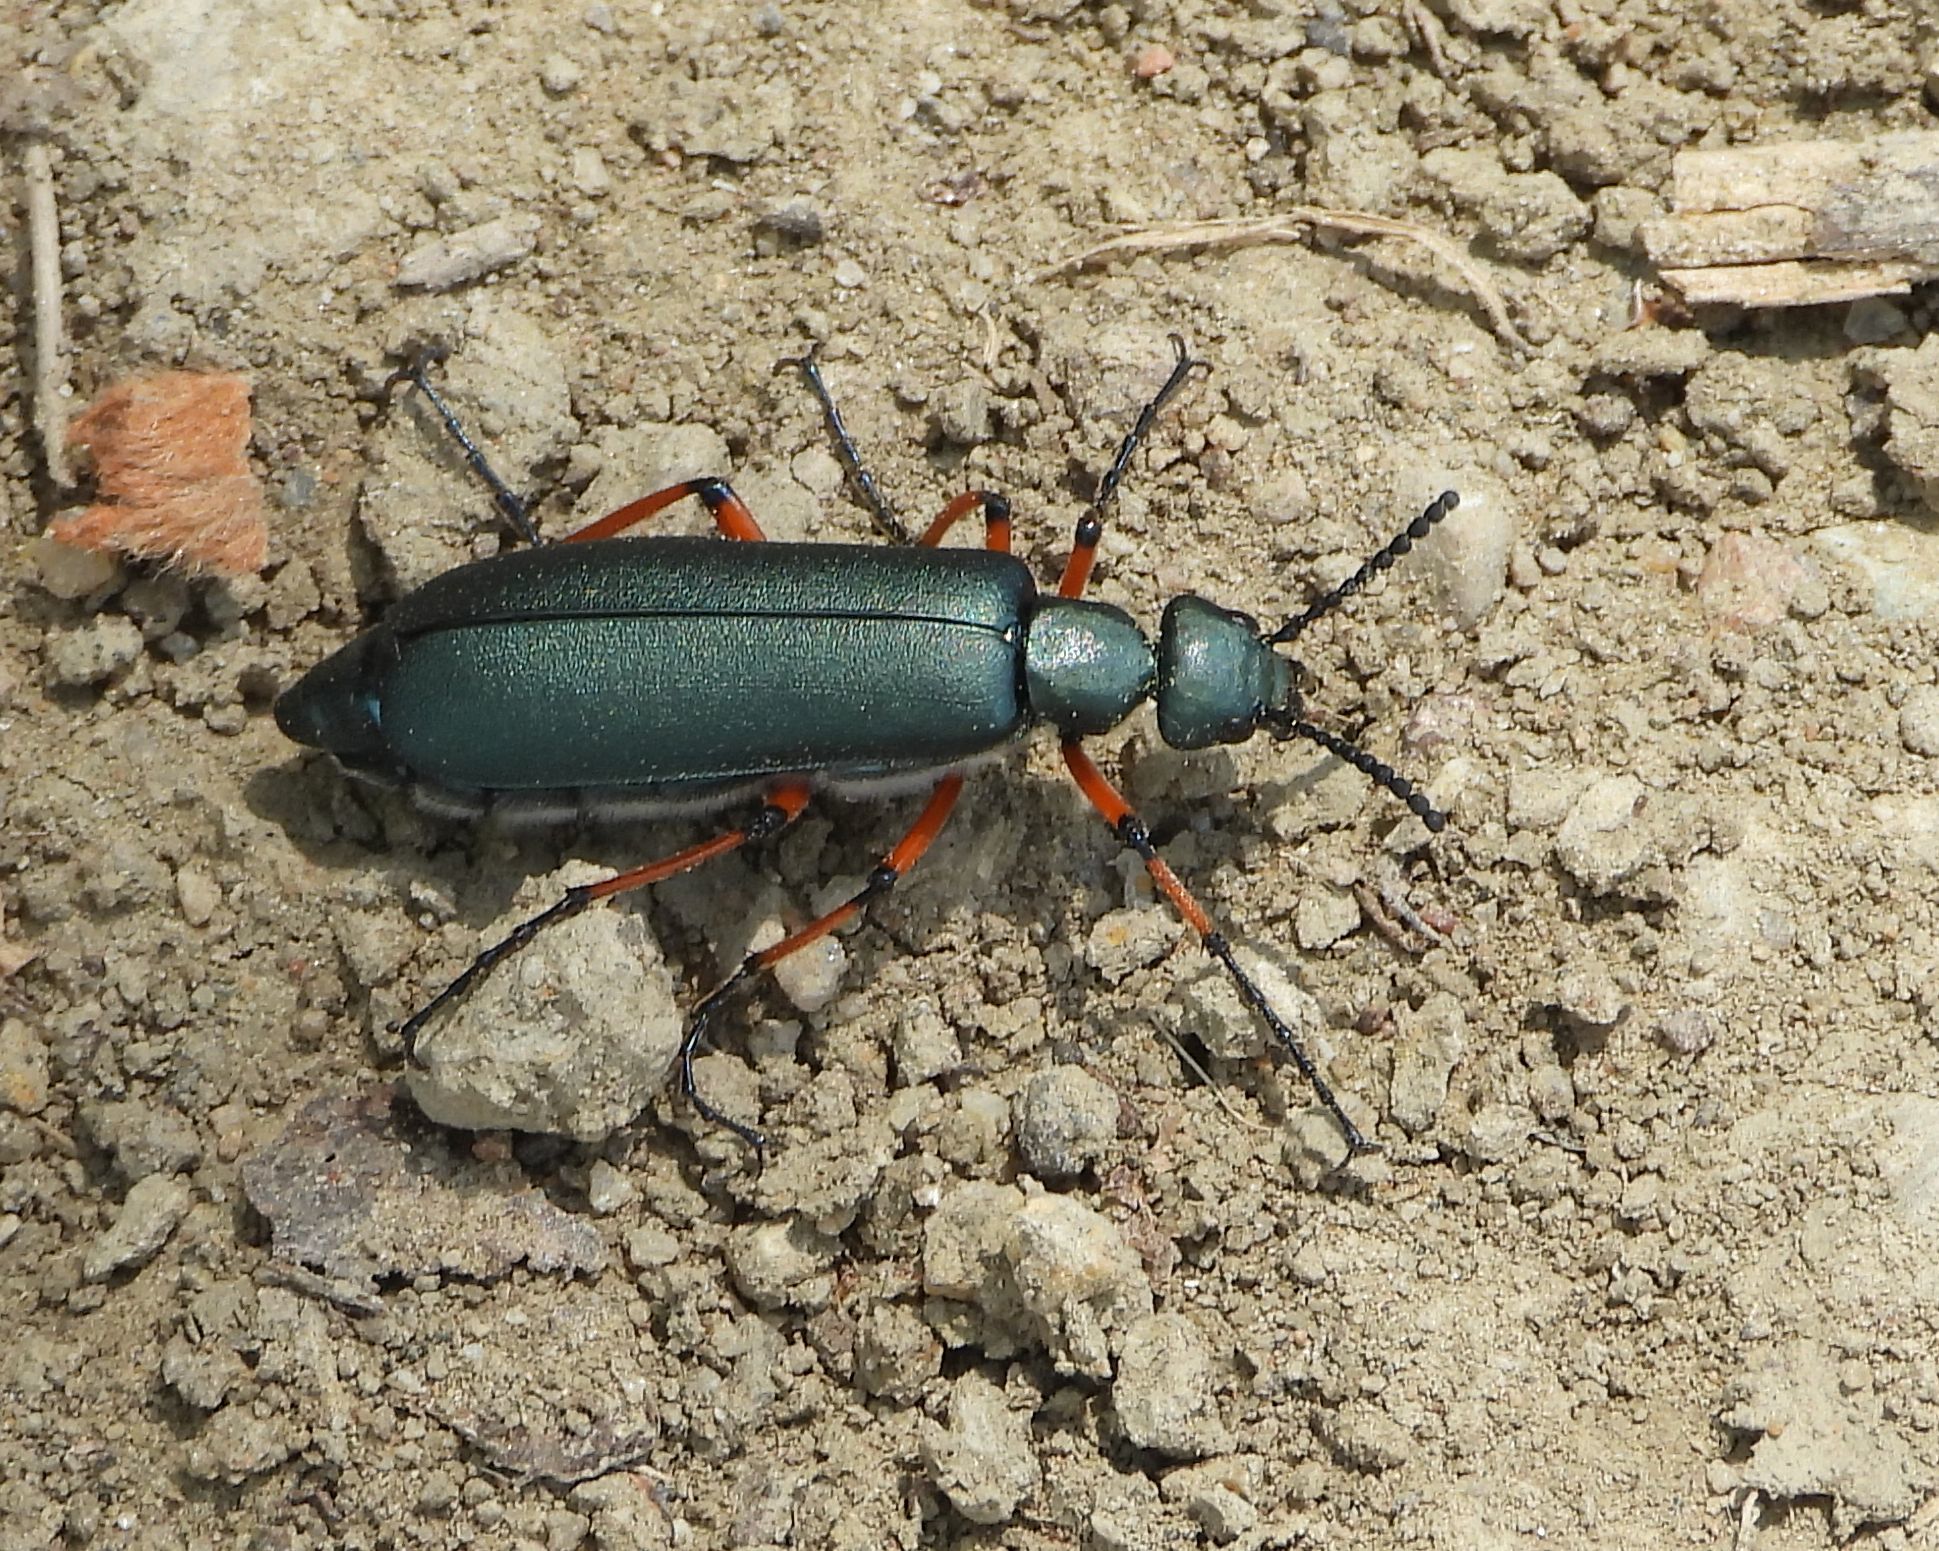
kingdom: Animalia
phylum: Arthropoda
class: Insecta
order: Coleoptera
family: Meloidae
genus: Lytta
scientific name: Lytta sayi
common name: Say's blister beetle
